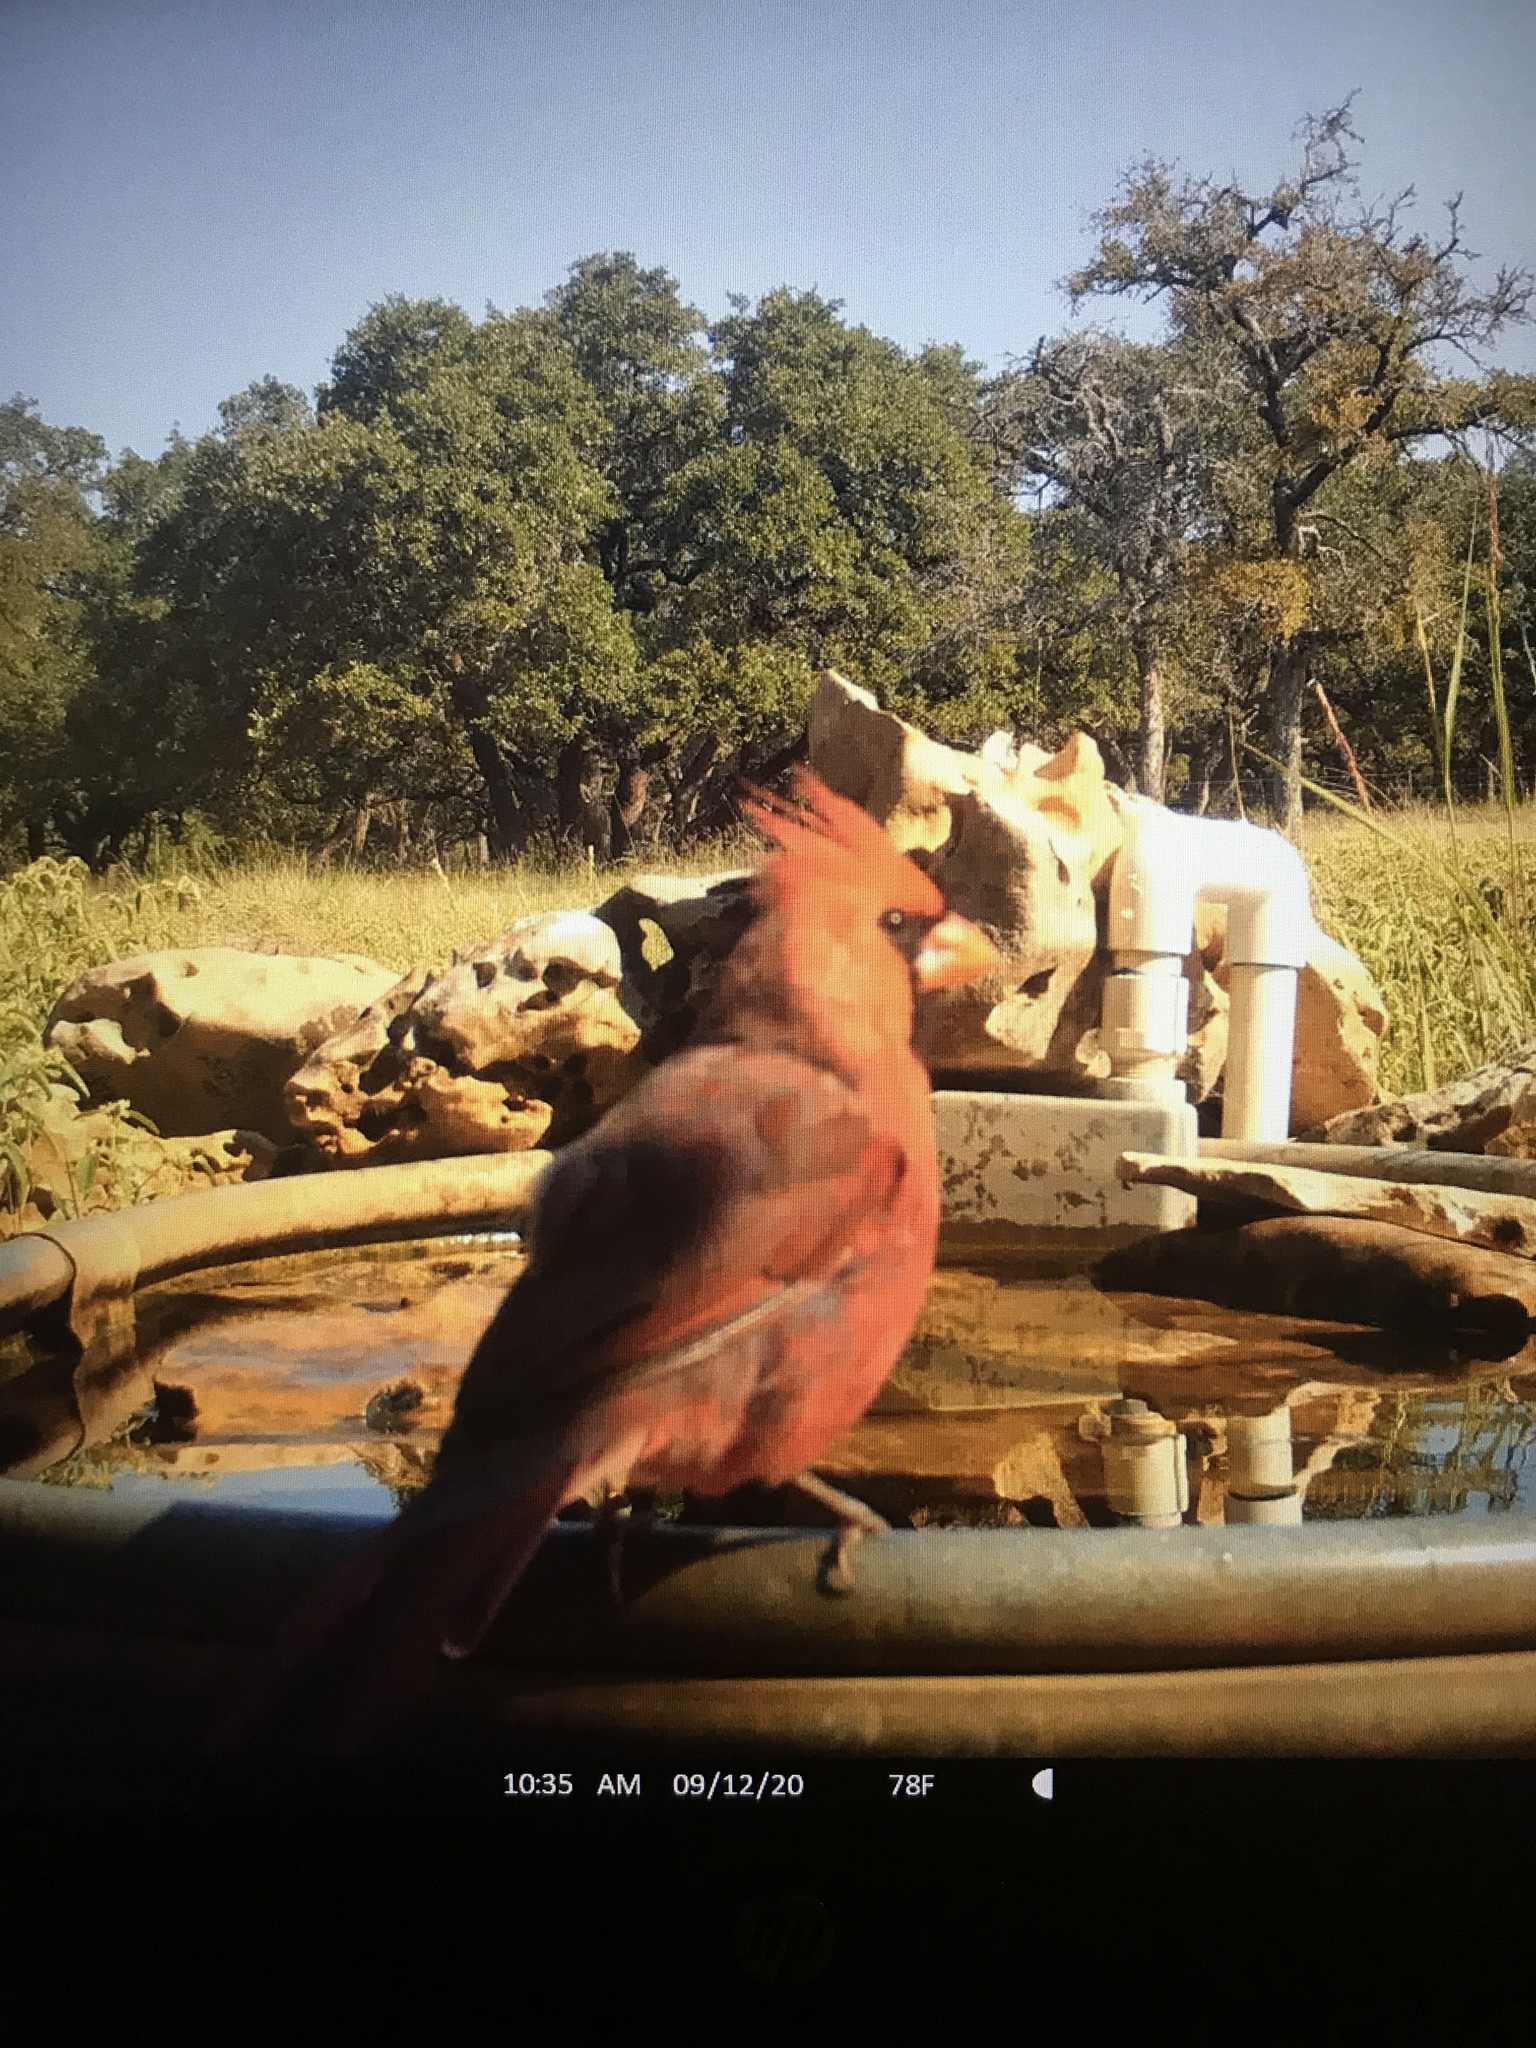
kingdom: Animalia
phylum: Chordata
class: Aves
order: Passeriformes
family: Cardinalidae
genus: Cardinalis
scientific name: Cardinalis cardinalis
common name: Northern cardinal
